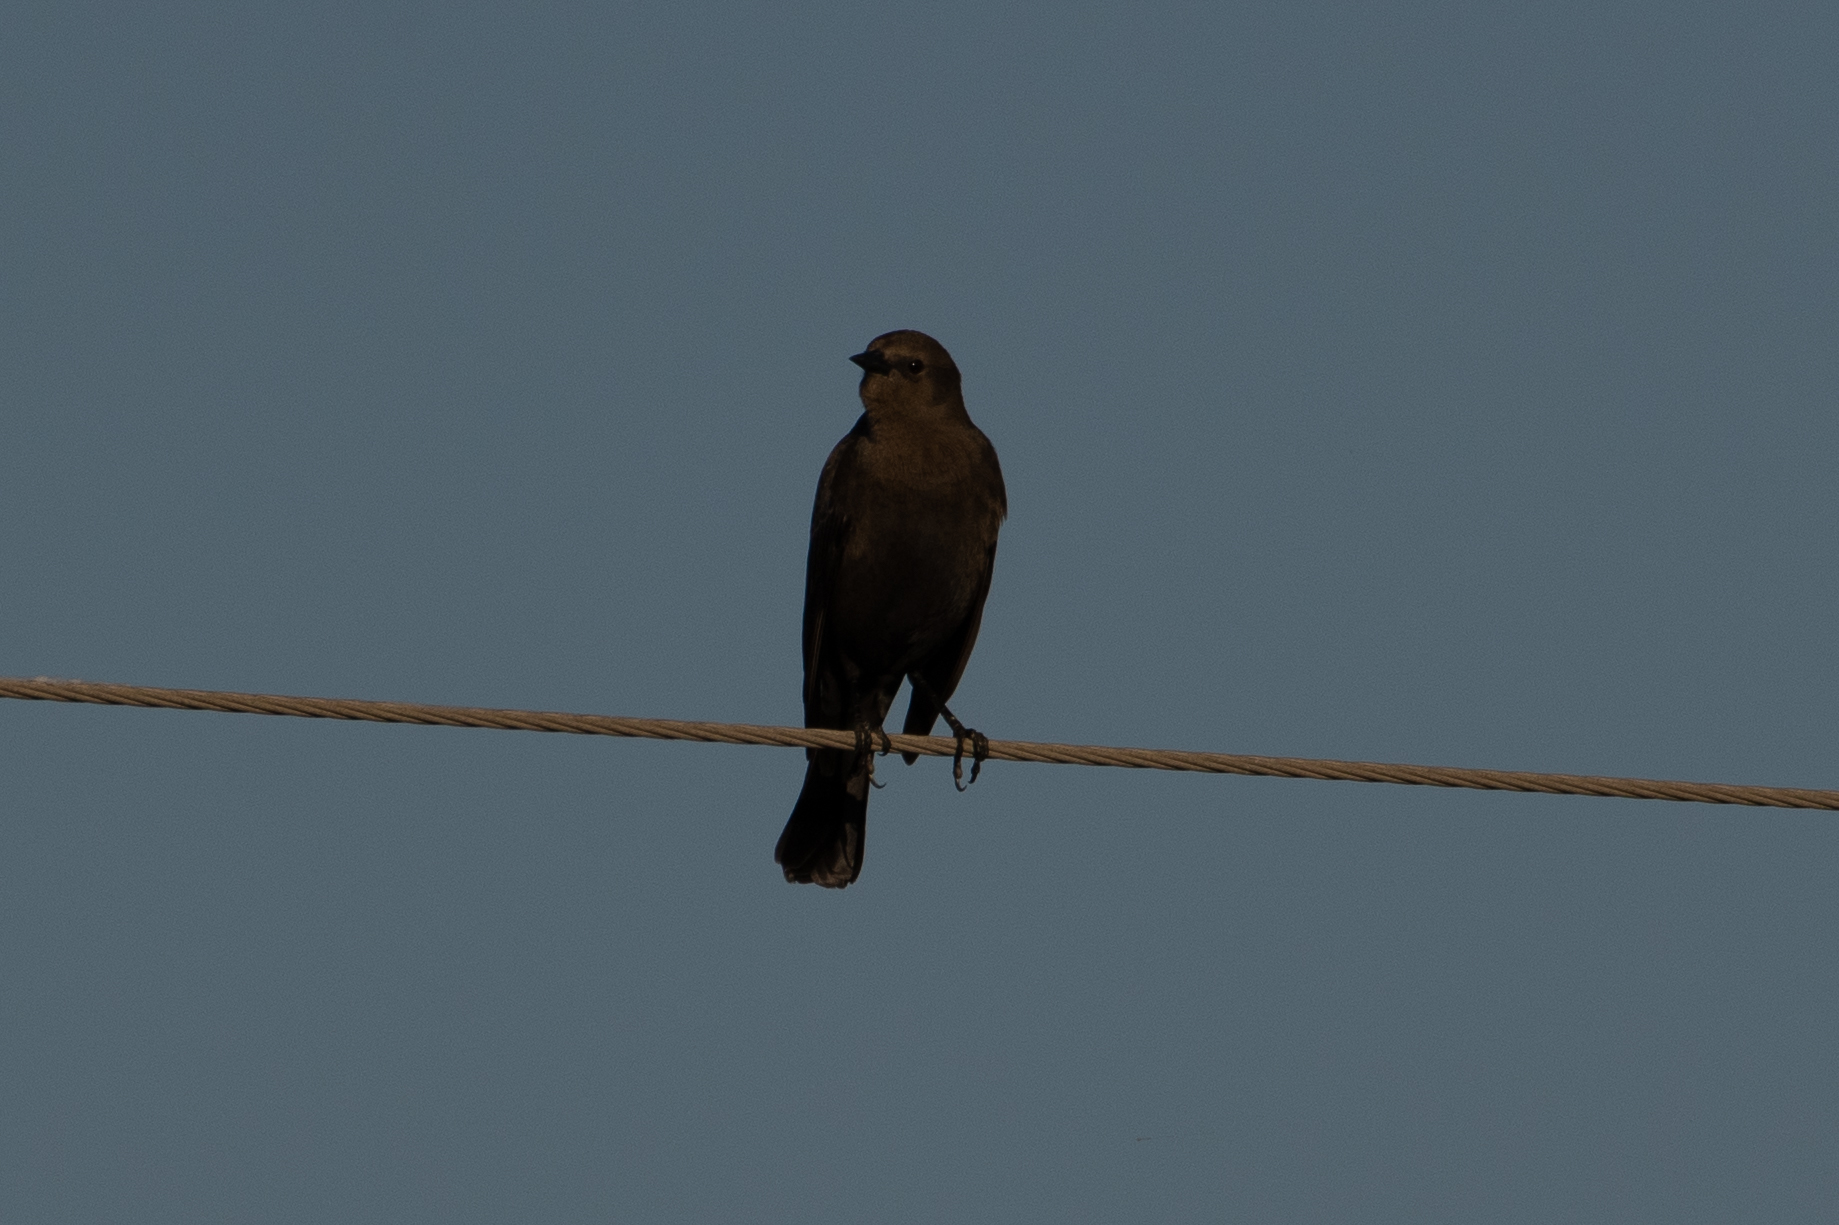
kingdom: Animalia
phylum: Chordata
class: Aves
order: Passeriformes
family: Icteridae
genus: Euphagus
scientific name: Euphagus cyanocephalus
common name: Brewer's blackbird
